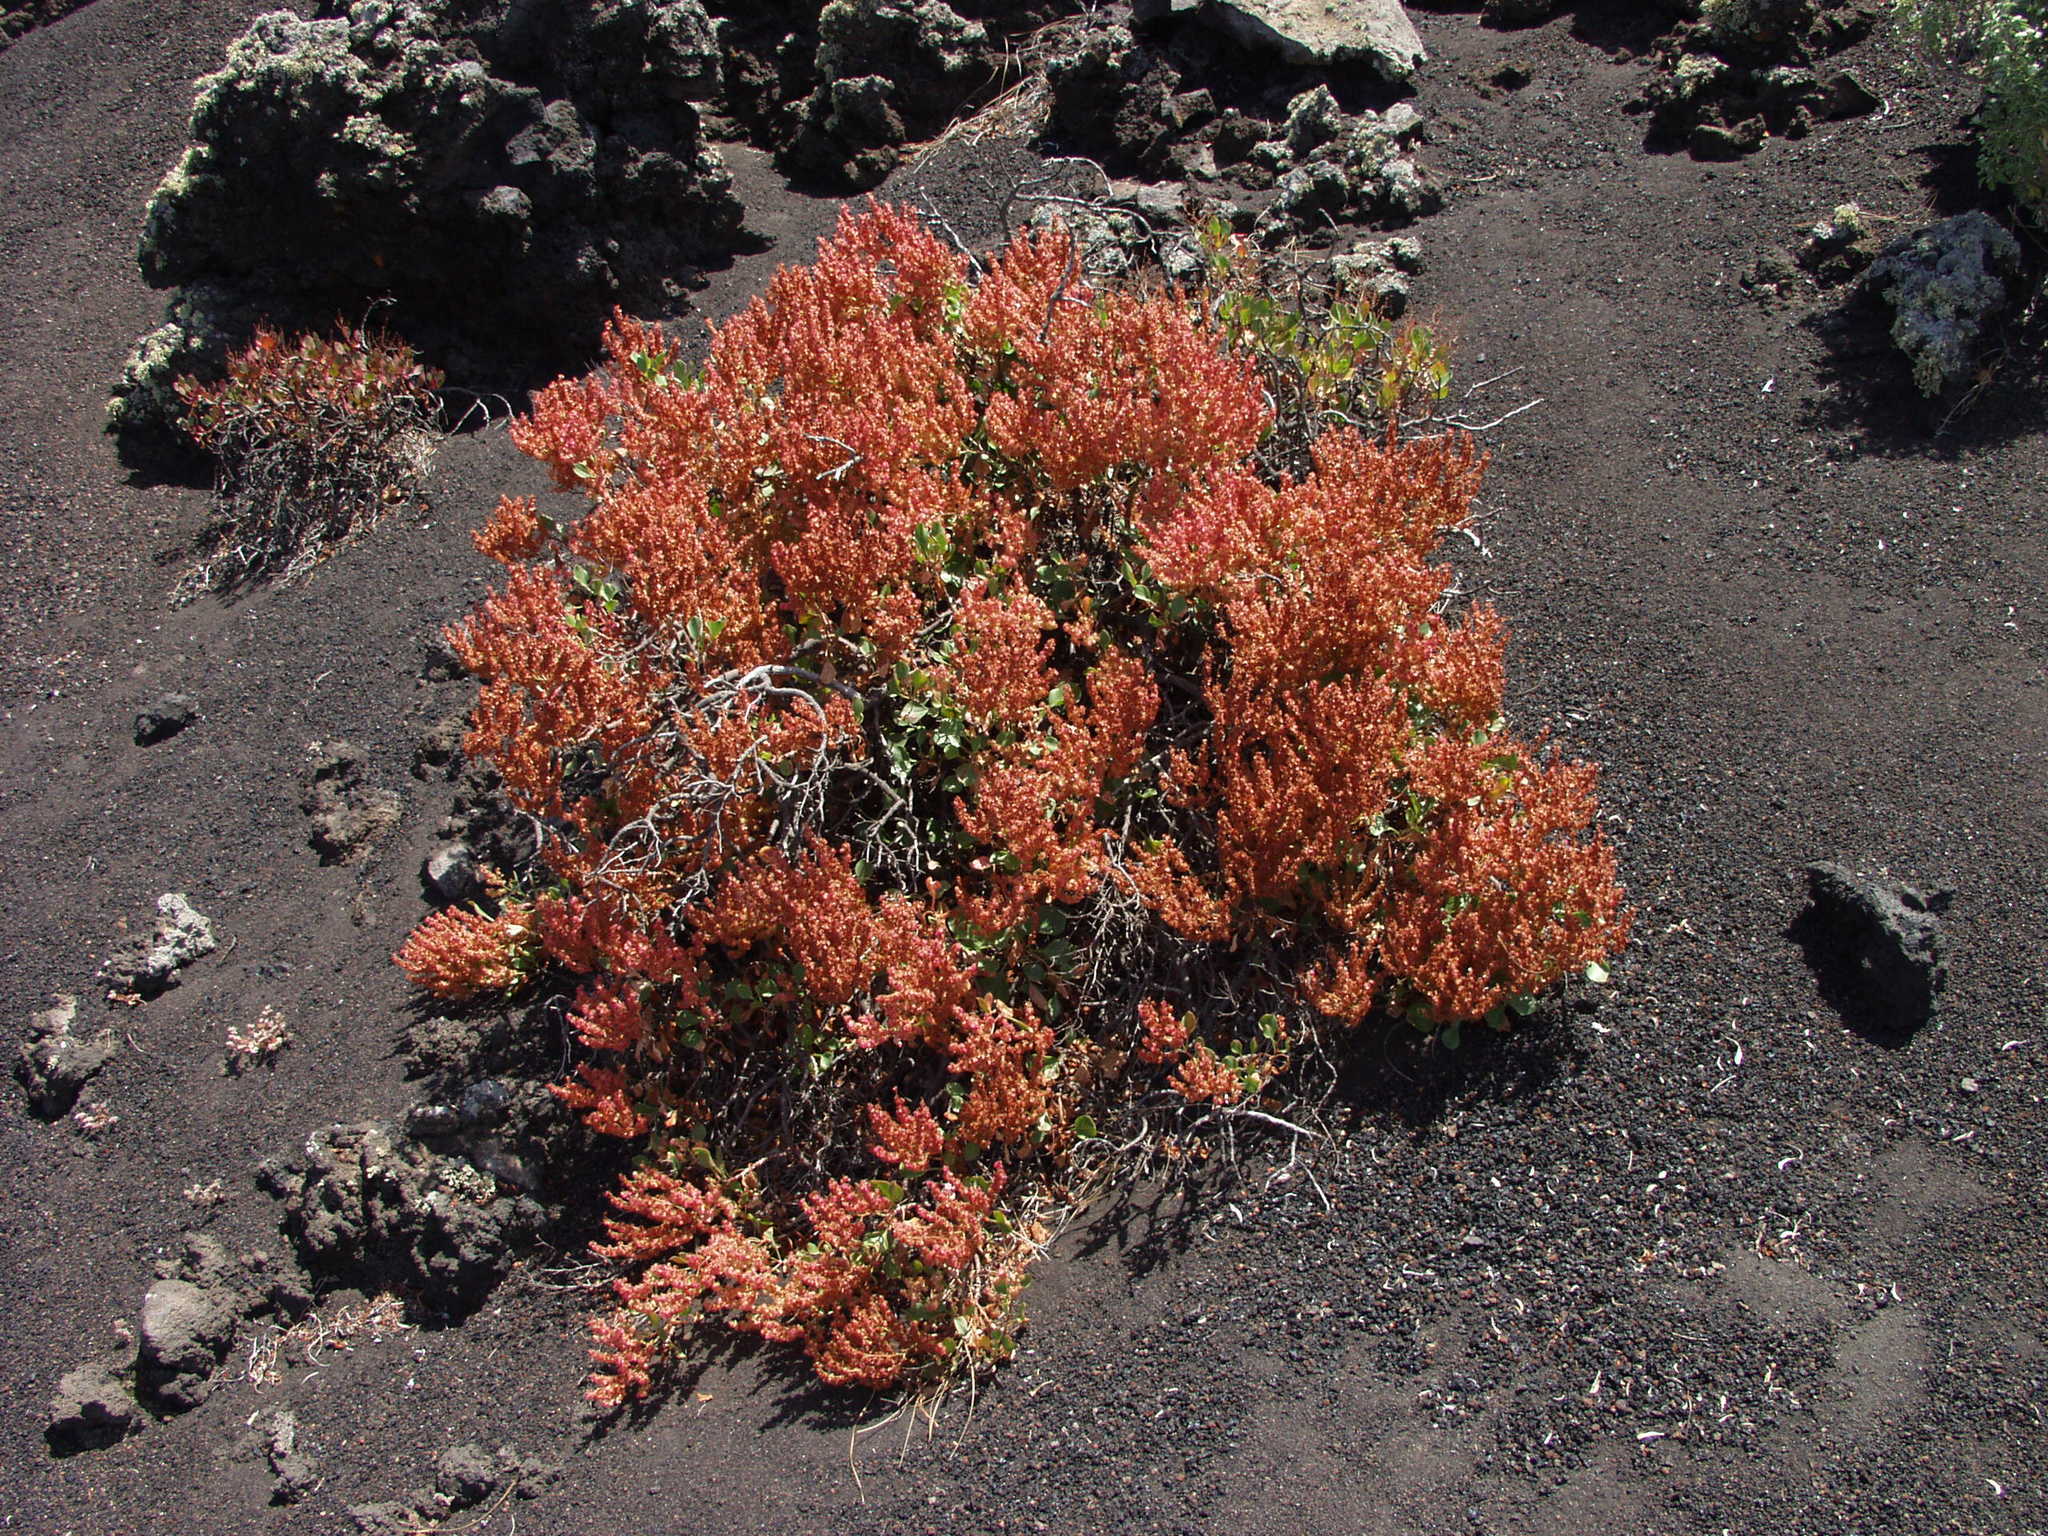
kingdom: Plantae
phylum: Tracheophyta
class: Magnoliopsida
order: Caryophyllales
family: Polygonaceae
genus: Rumex
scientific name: Rumex lunaria
